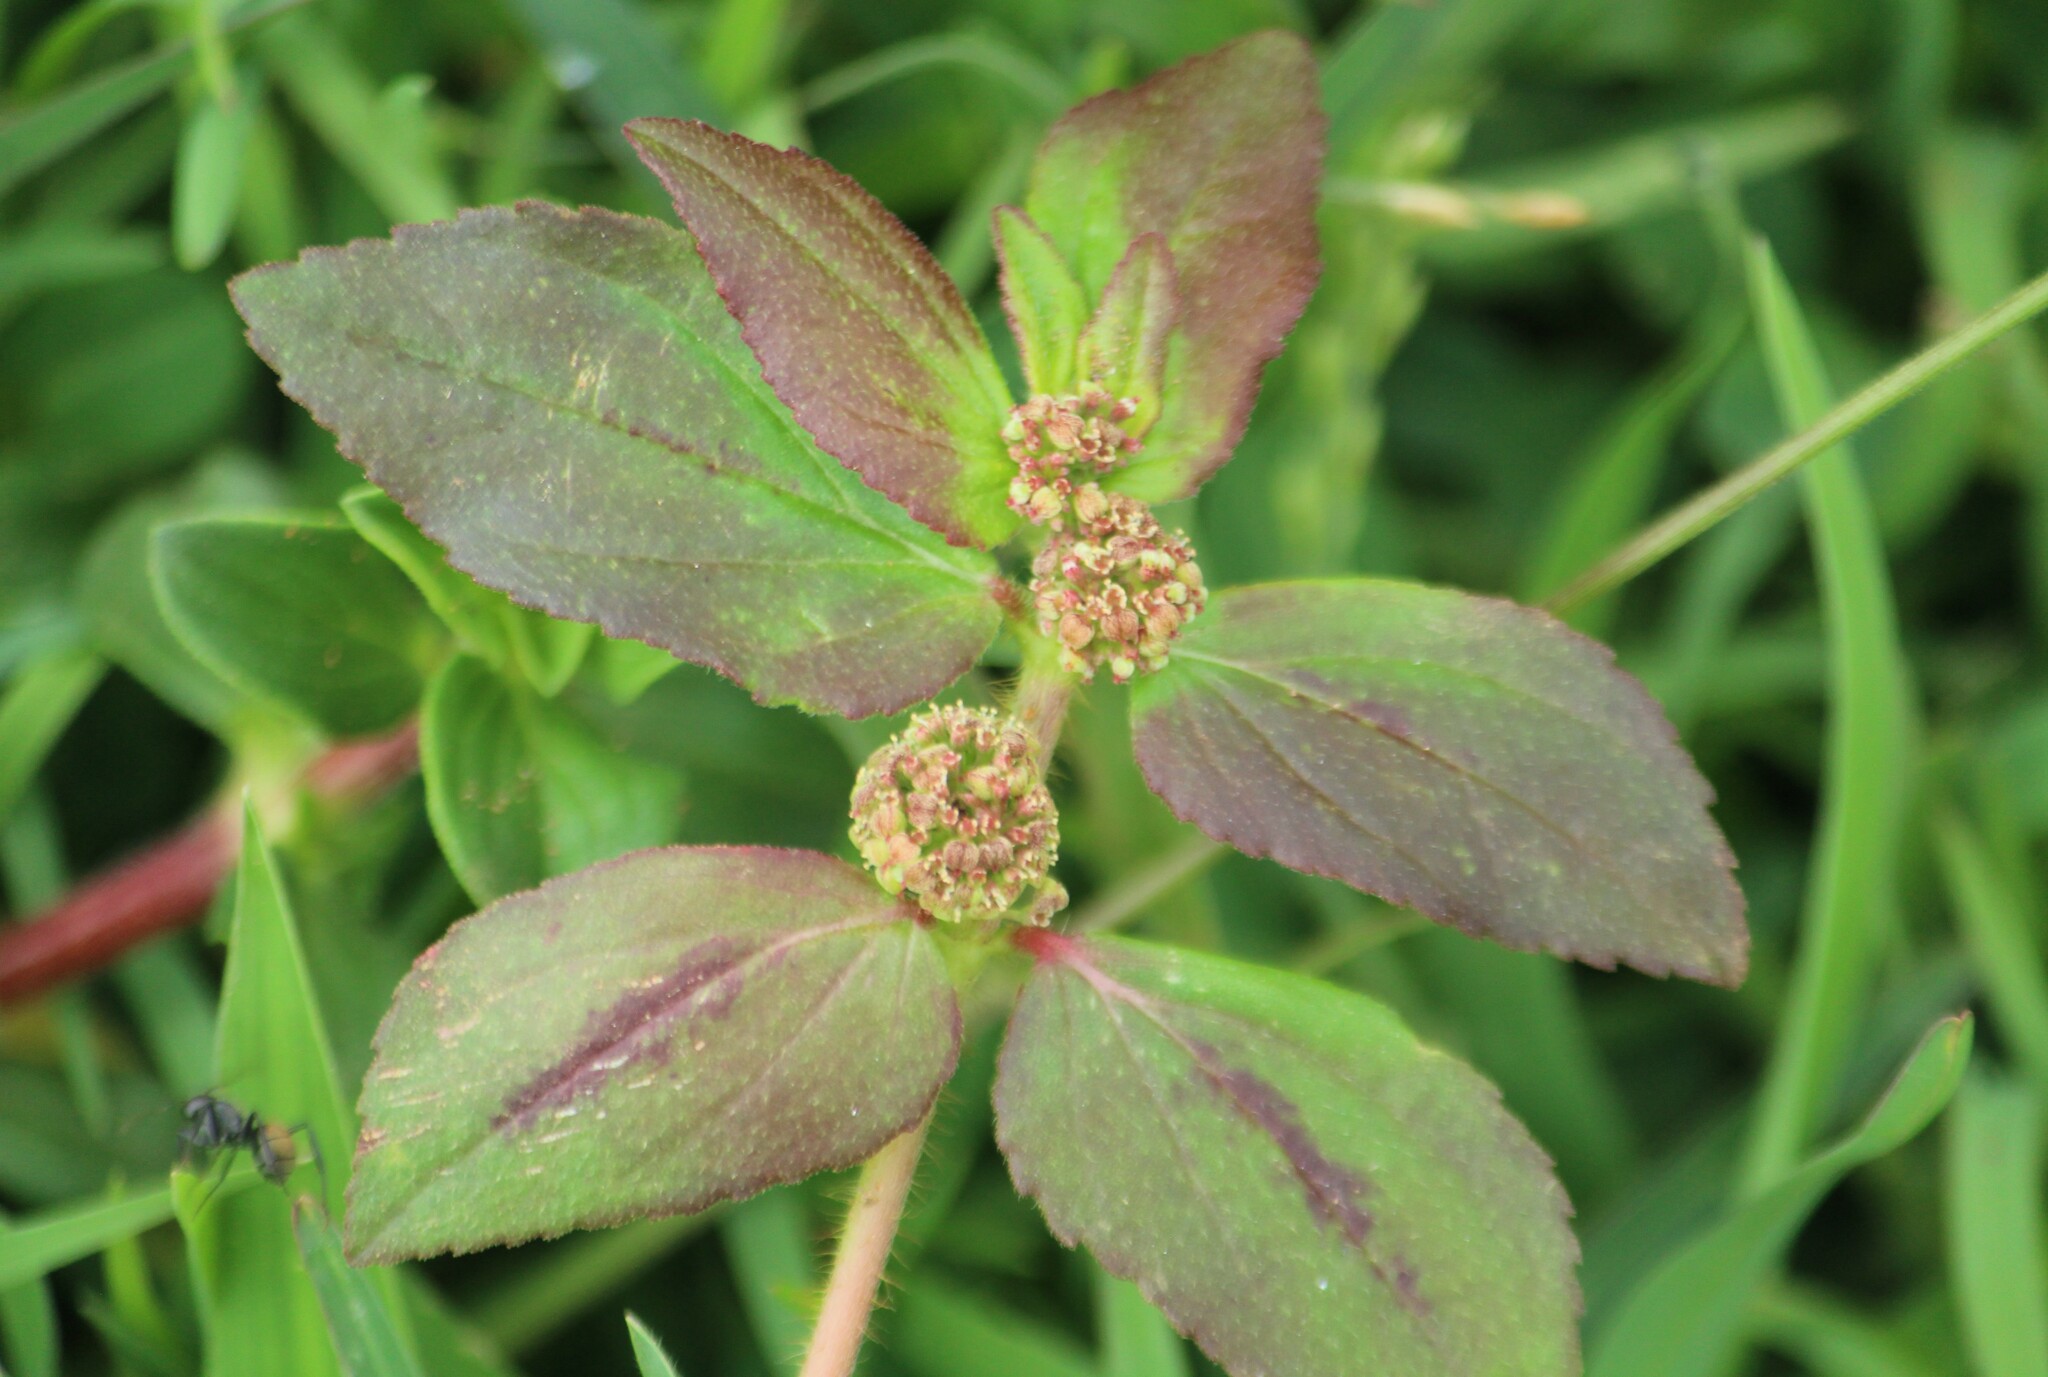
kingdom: Plantae
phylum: Tracheophyta
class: Magnoliopsida
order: Malpighiales
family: Euphorbiaceae
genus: Euphorbia
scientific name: Euphorbia hirta
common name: Pillpod sandmat
